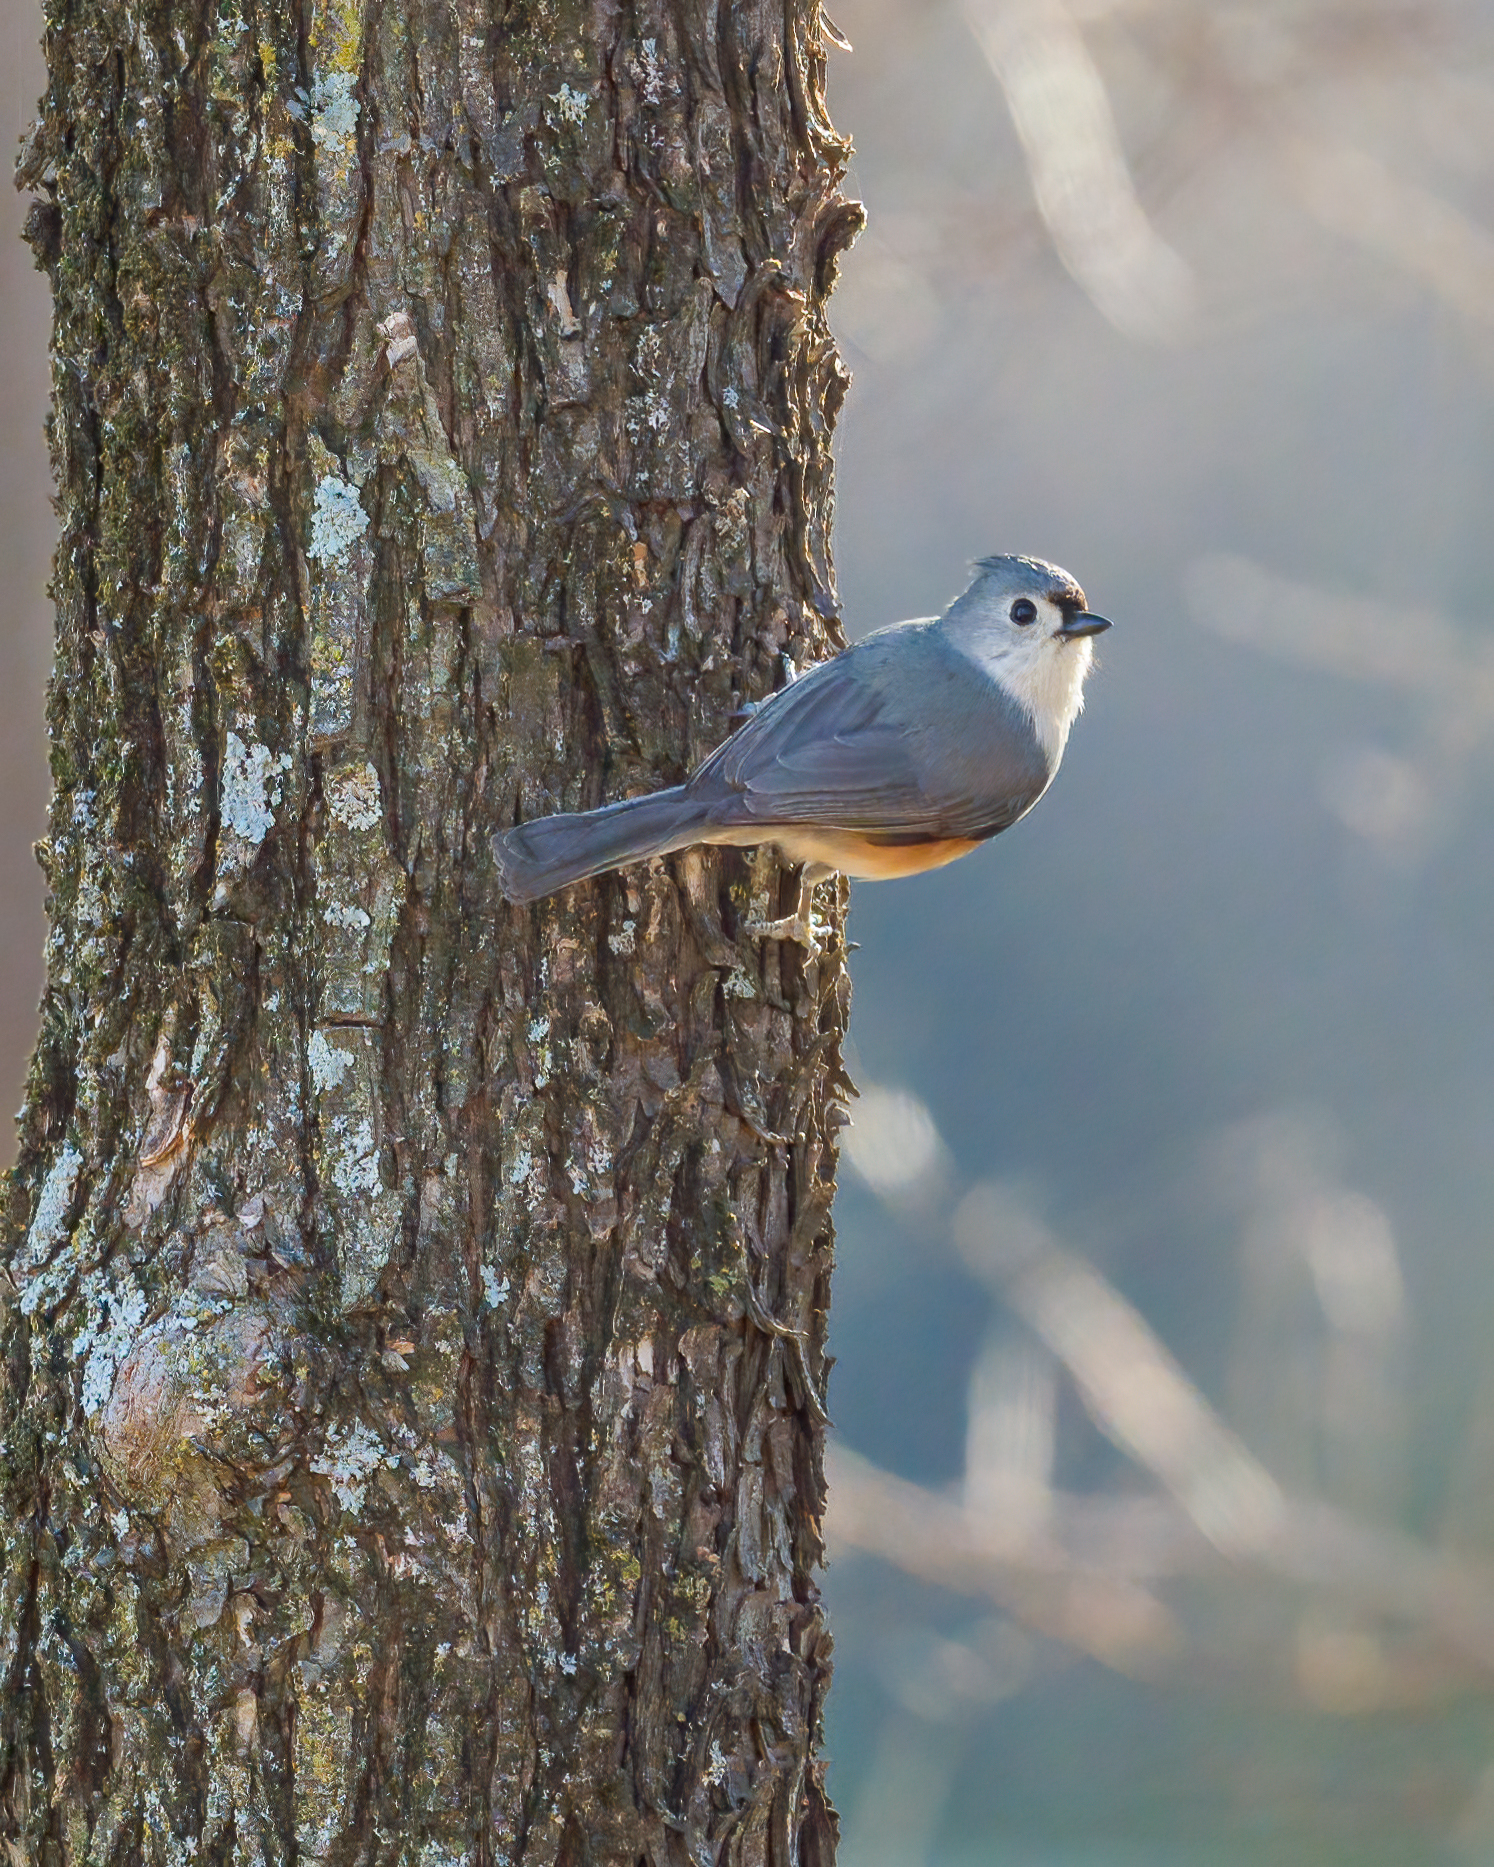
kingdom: Animalia
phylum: Chordata
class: Aves
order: Passeriformes
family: Paridae
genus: Baeolophus
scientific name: Baeolophus bicolor
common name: Tufted titmouse
